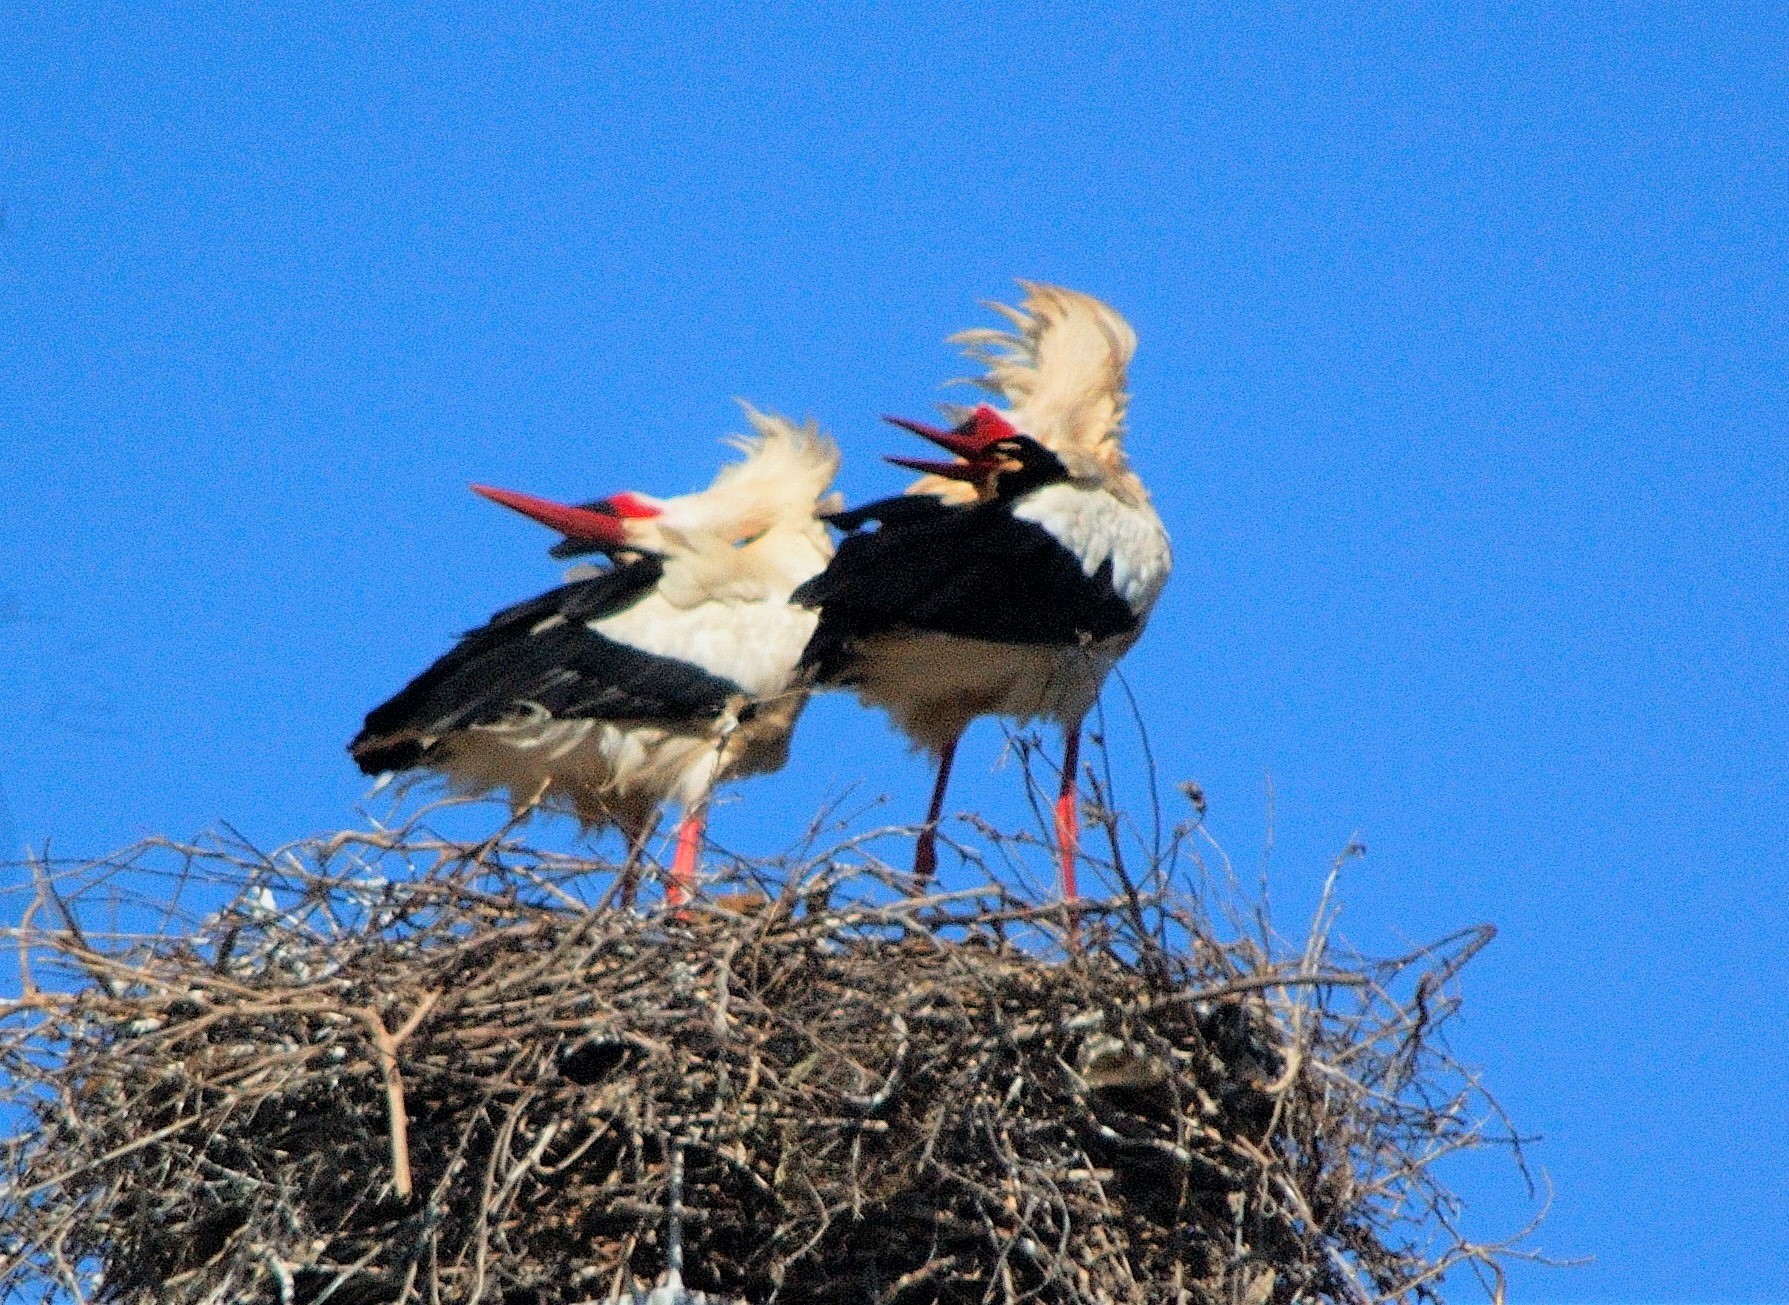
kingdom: Animalia
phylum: Chordata
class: Aves
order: Ciconiiformes
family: Ciconiidae
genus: Ciconia
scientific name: Ciconia ciconia
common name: White stork
